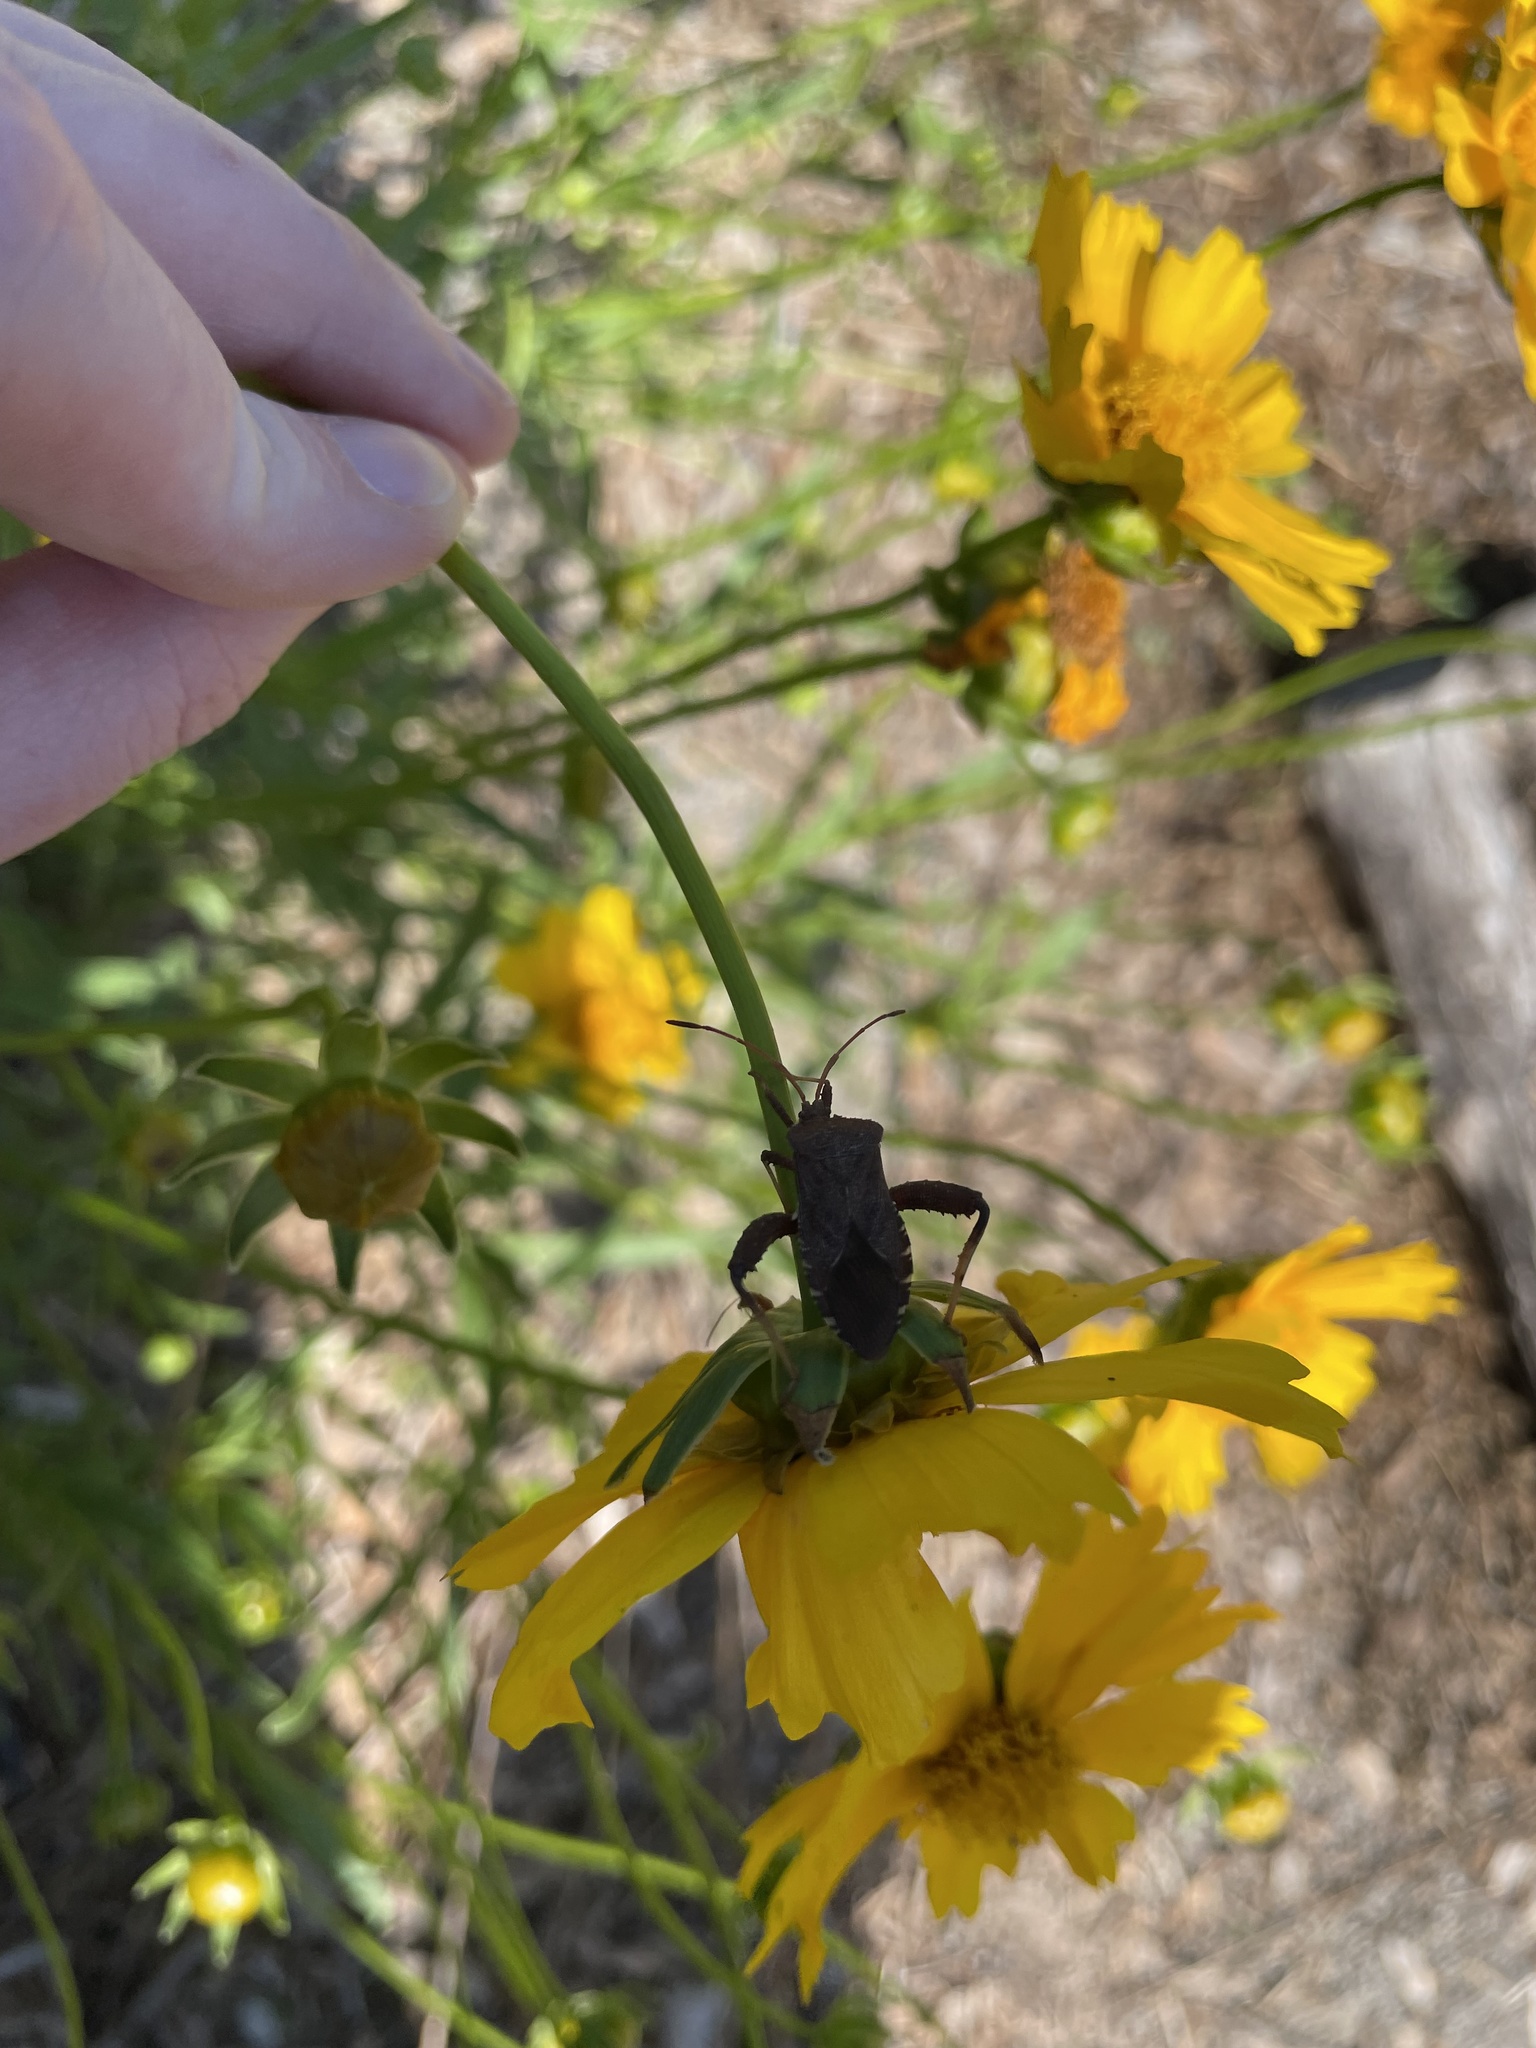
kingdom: Animalia
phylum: Arthropoda
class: Insecta
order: Hemiptera
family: Coreidae
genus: Euthochtha
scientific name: Euthochtha galeator
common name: Helmeted squash bug
